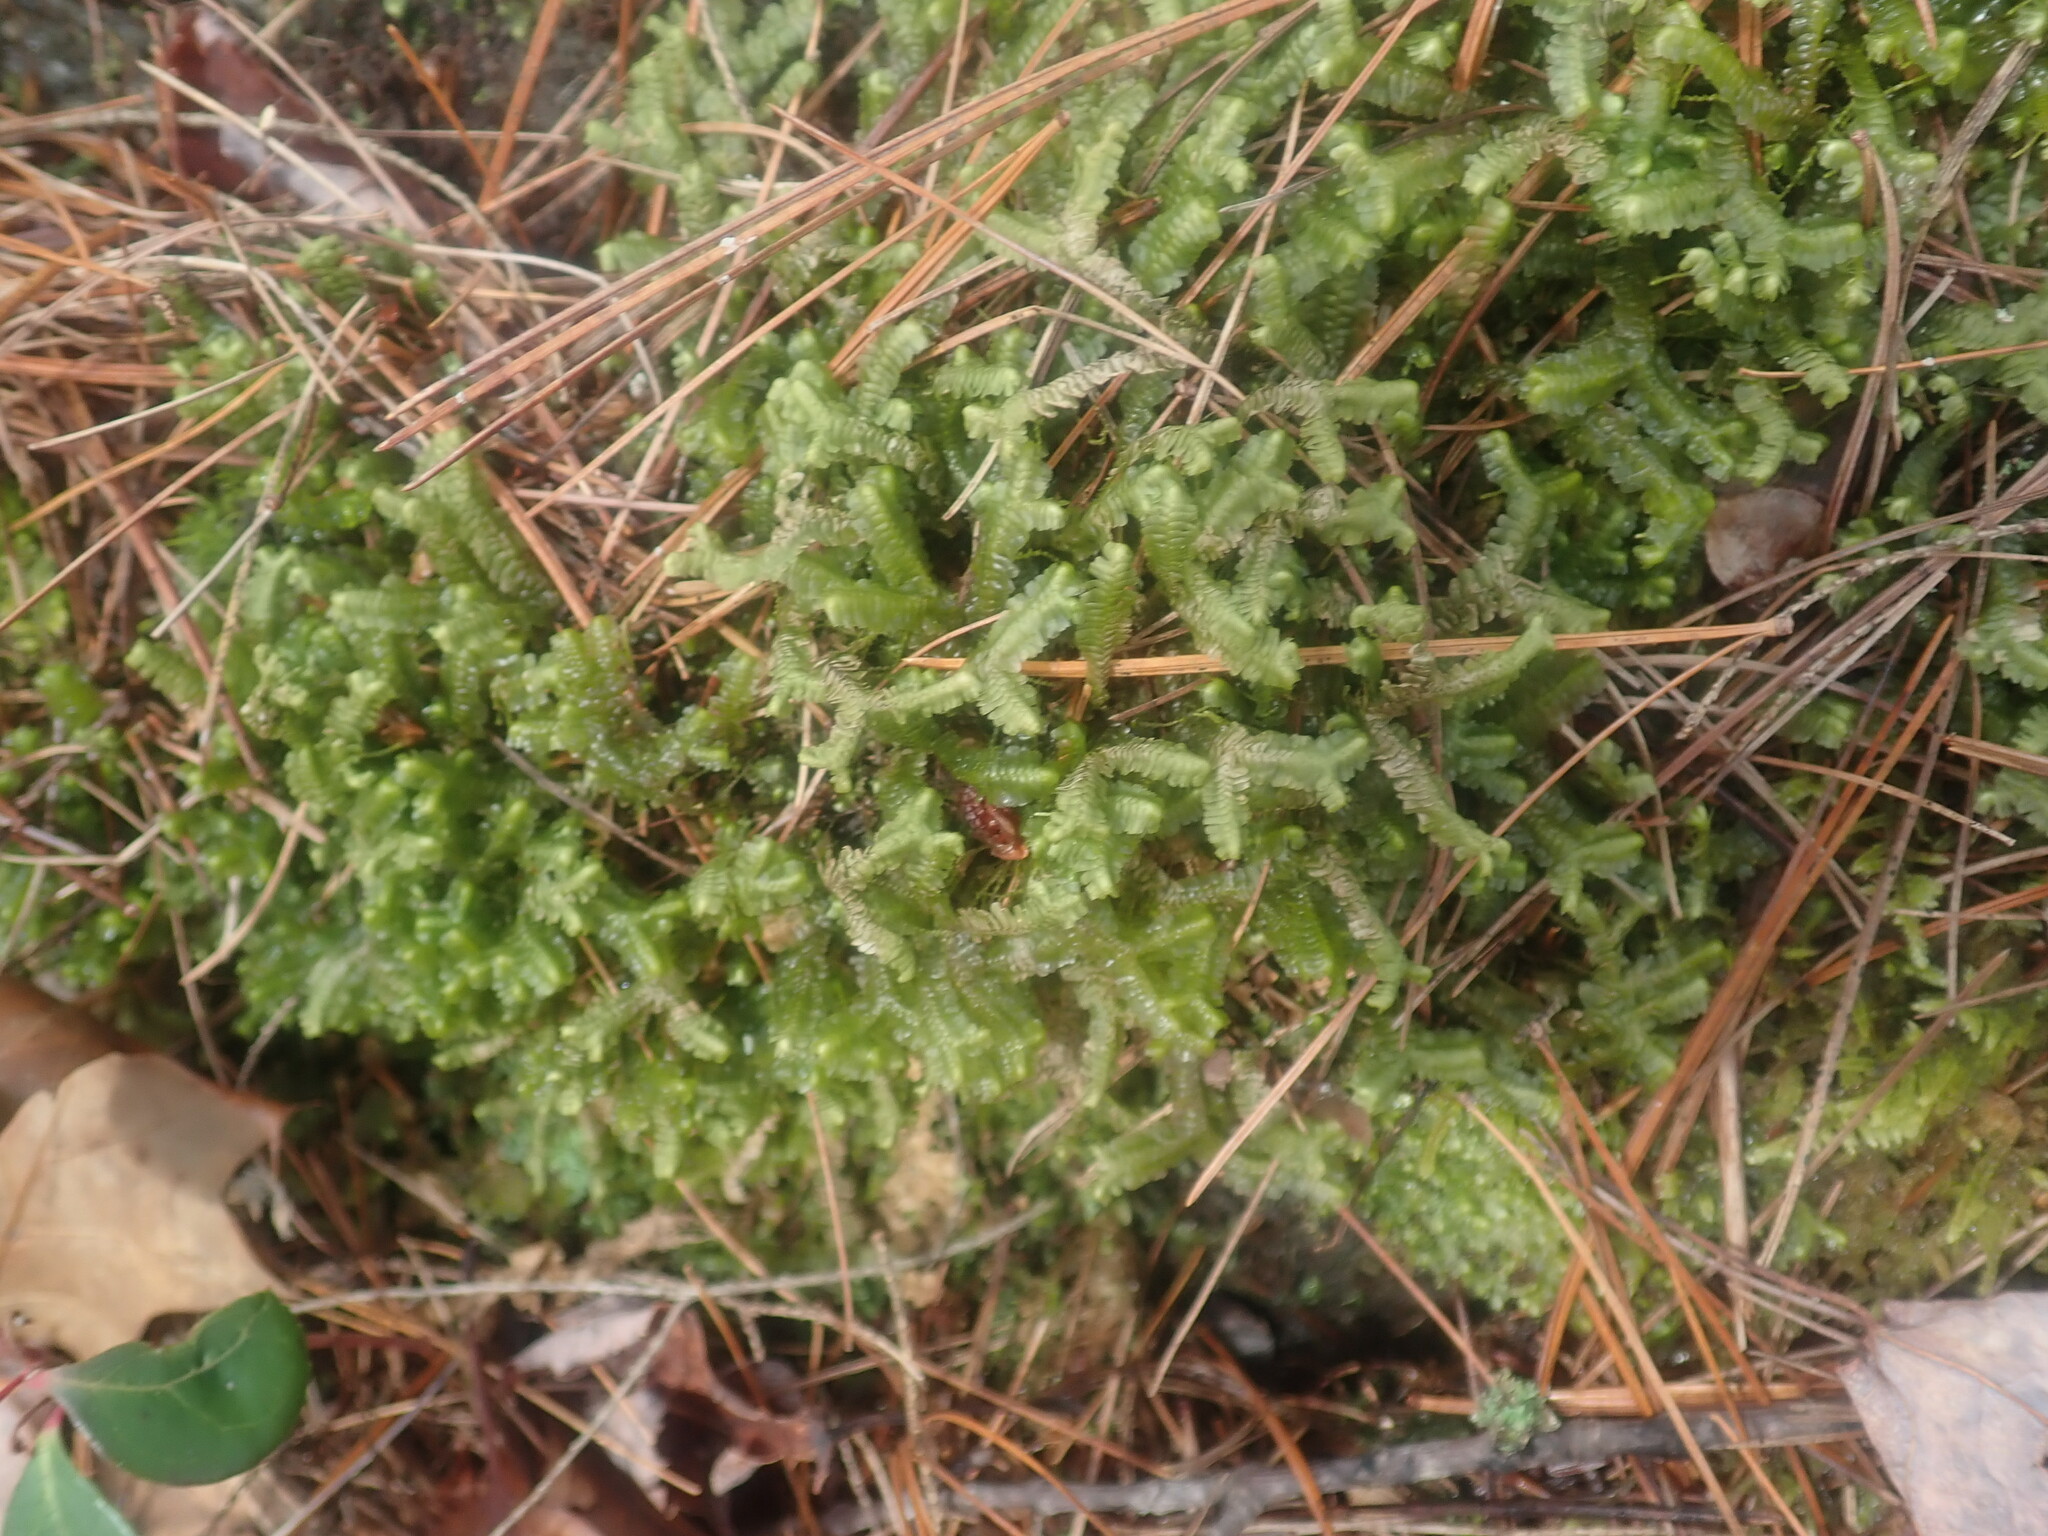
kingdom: Plantae
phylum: Marchantiophyta
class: Jungermanniopsida
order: Jungermanniales
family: Lepidoziaceae
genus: Bazzania
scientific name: Bazzania trilobata
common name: Three-lobed whipwort
